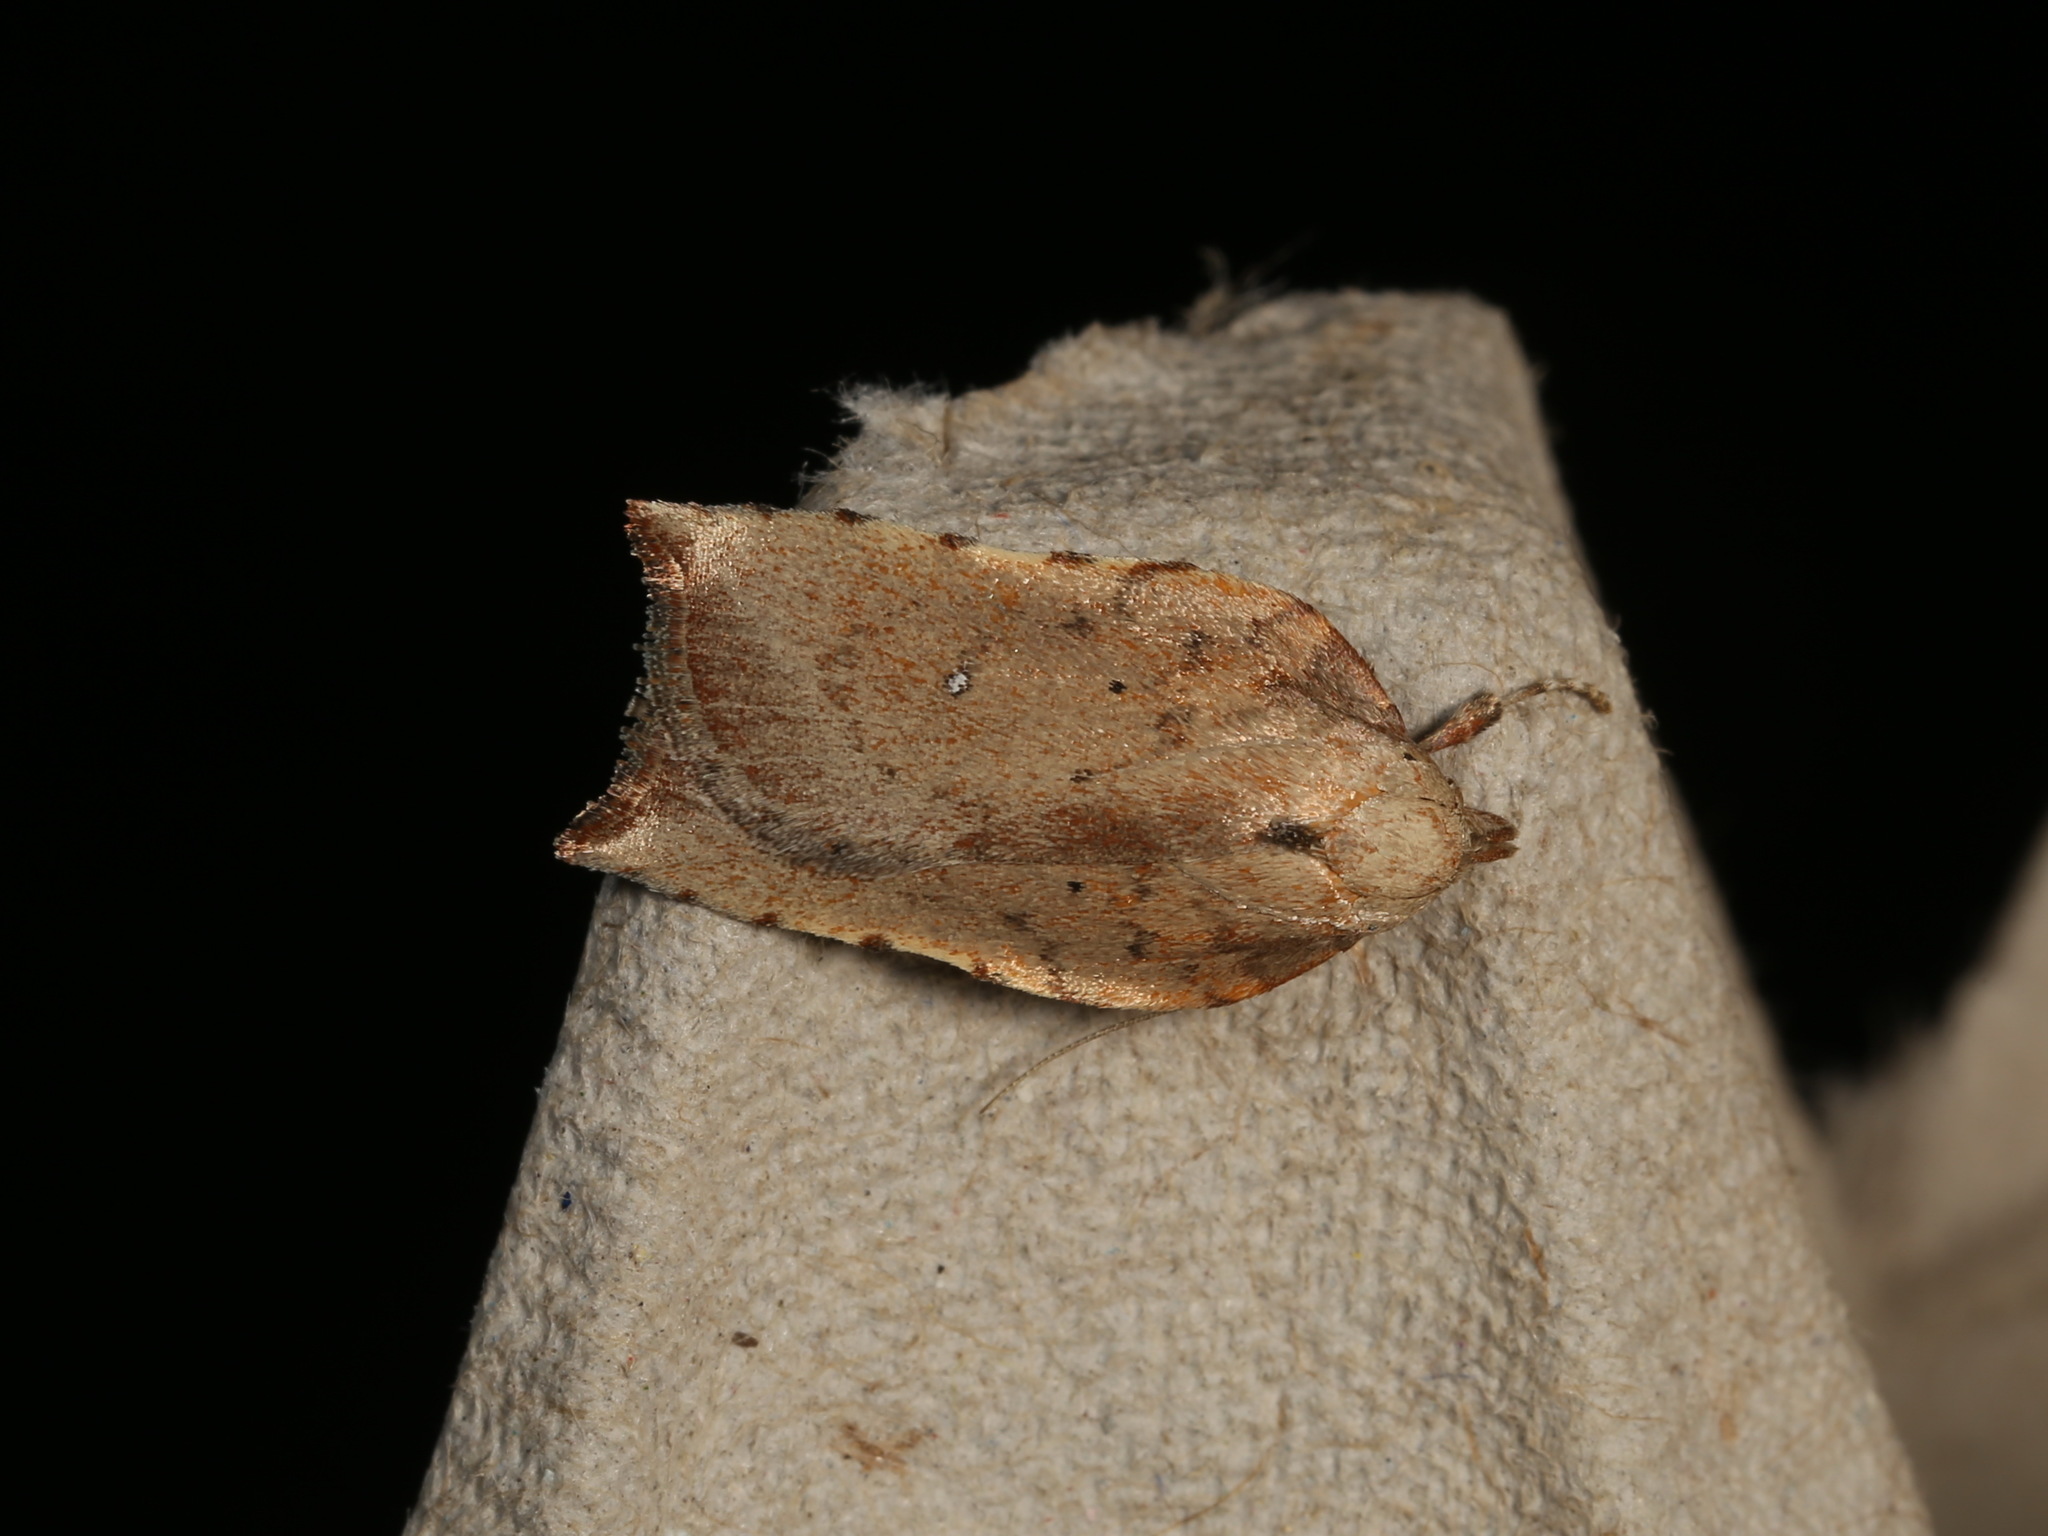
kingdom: Animalia
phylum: Arthropoda
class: Insecta
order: Lepidoptera
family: Oecophoridae
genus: Arachnographa
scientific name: Arachnographa micrastrella
